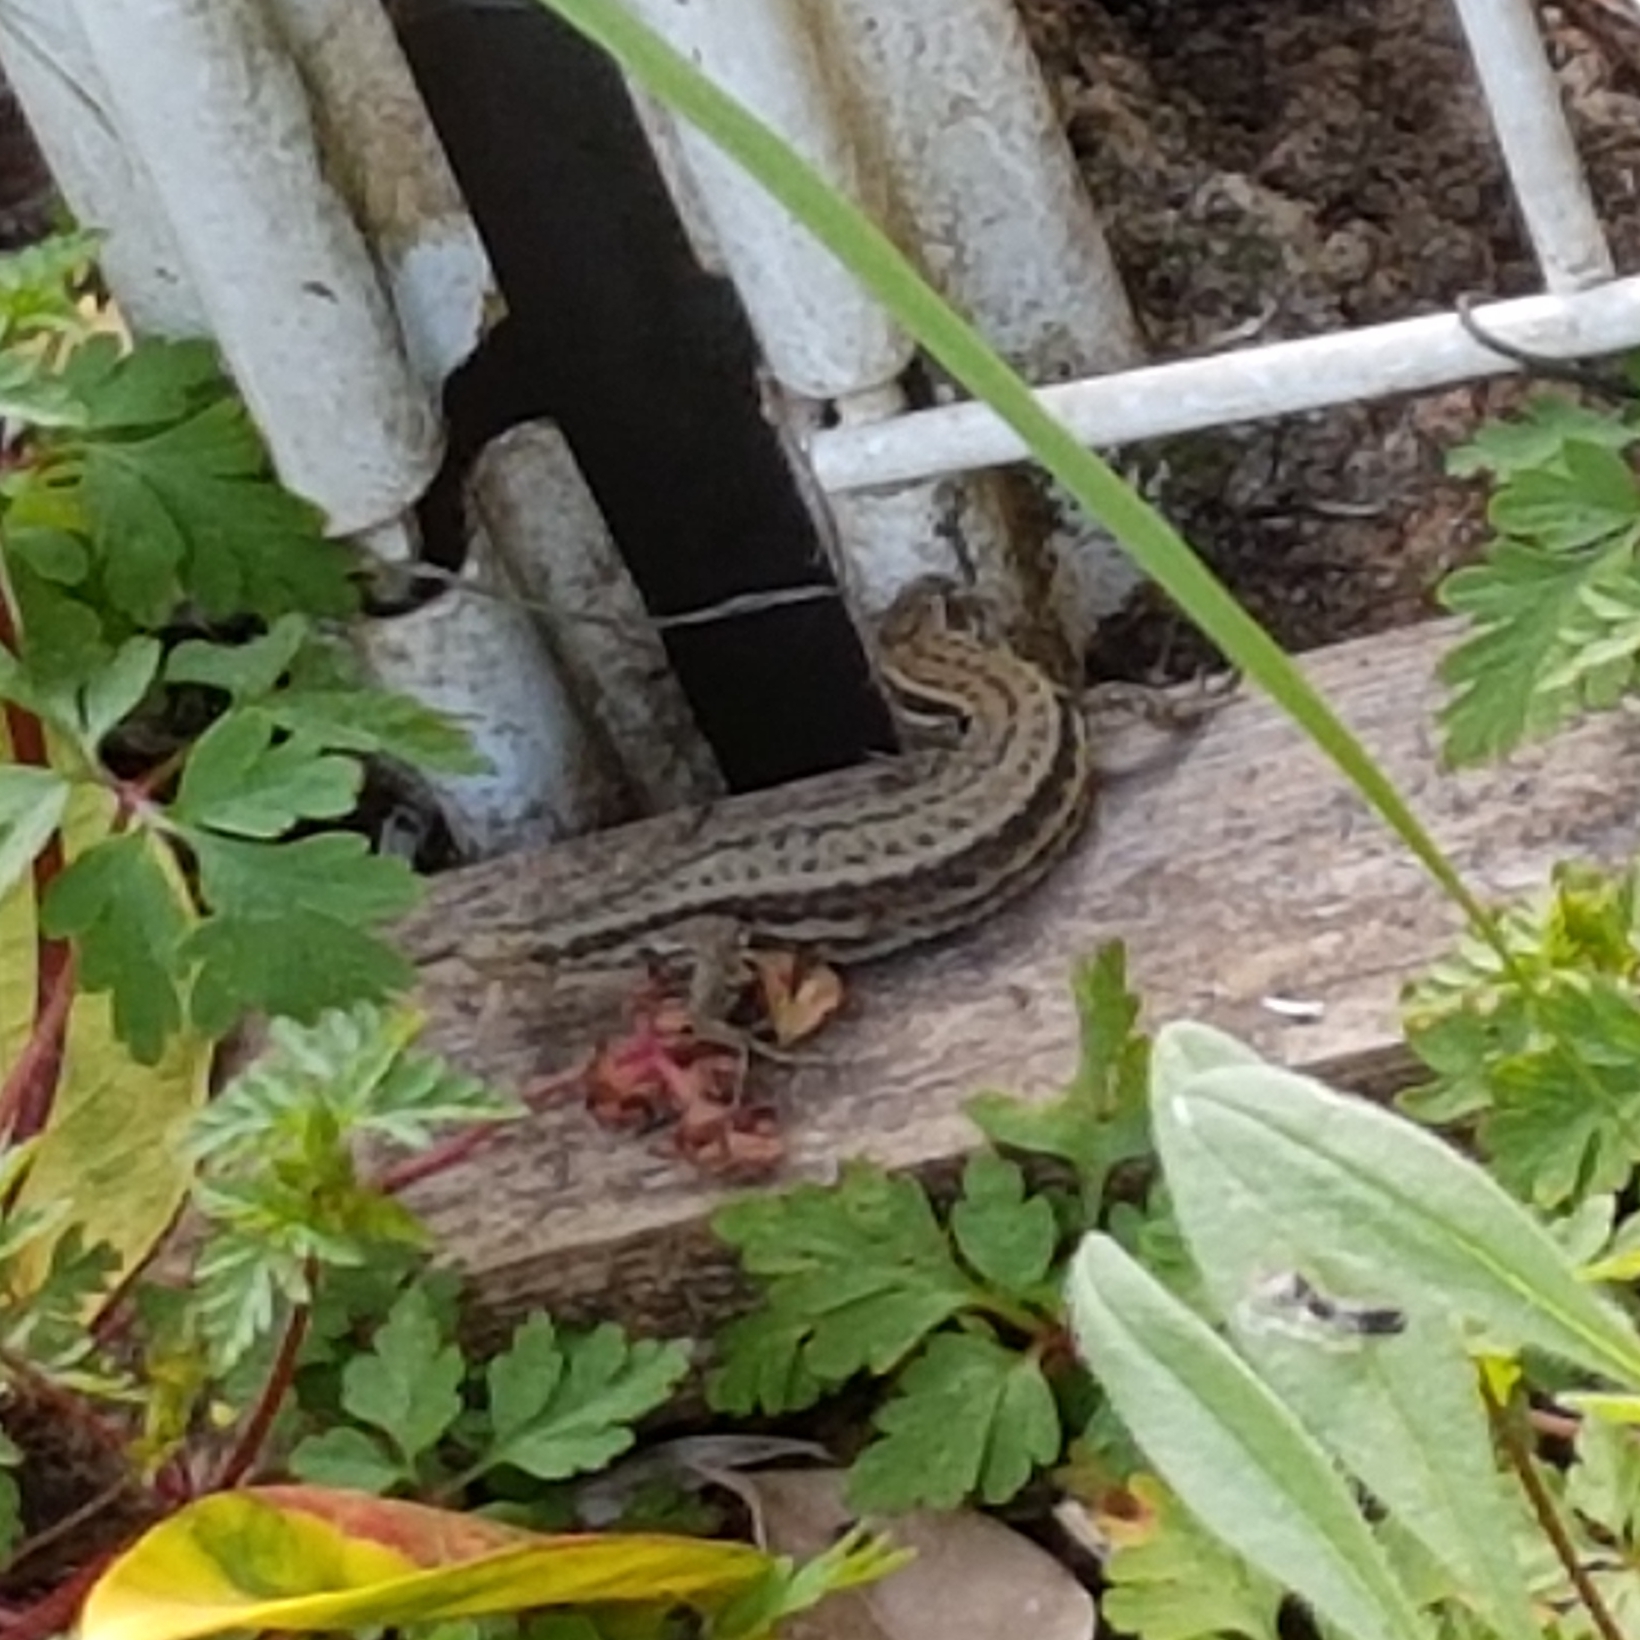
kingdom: Animalia
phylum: Chordata
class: Squamata
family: Lacertidae
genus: Podarcis
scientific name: Podarcis muralis
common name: Common wall lizard
